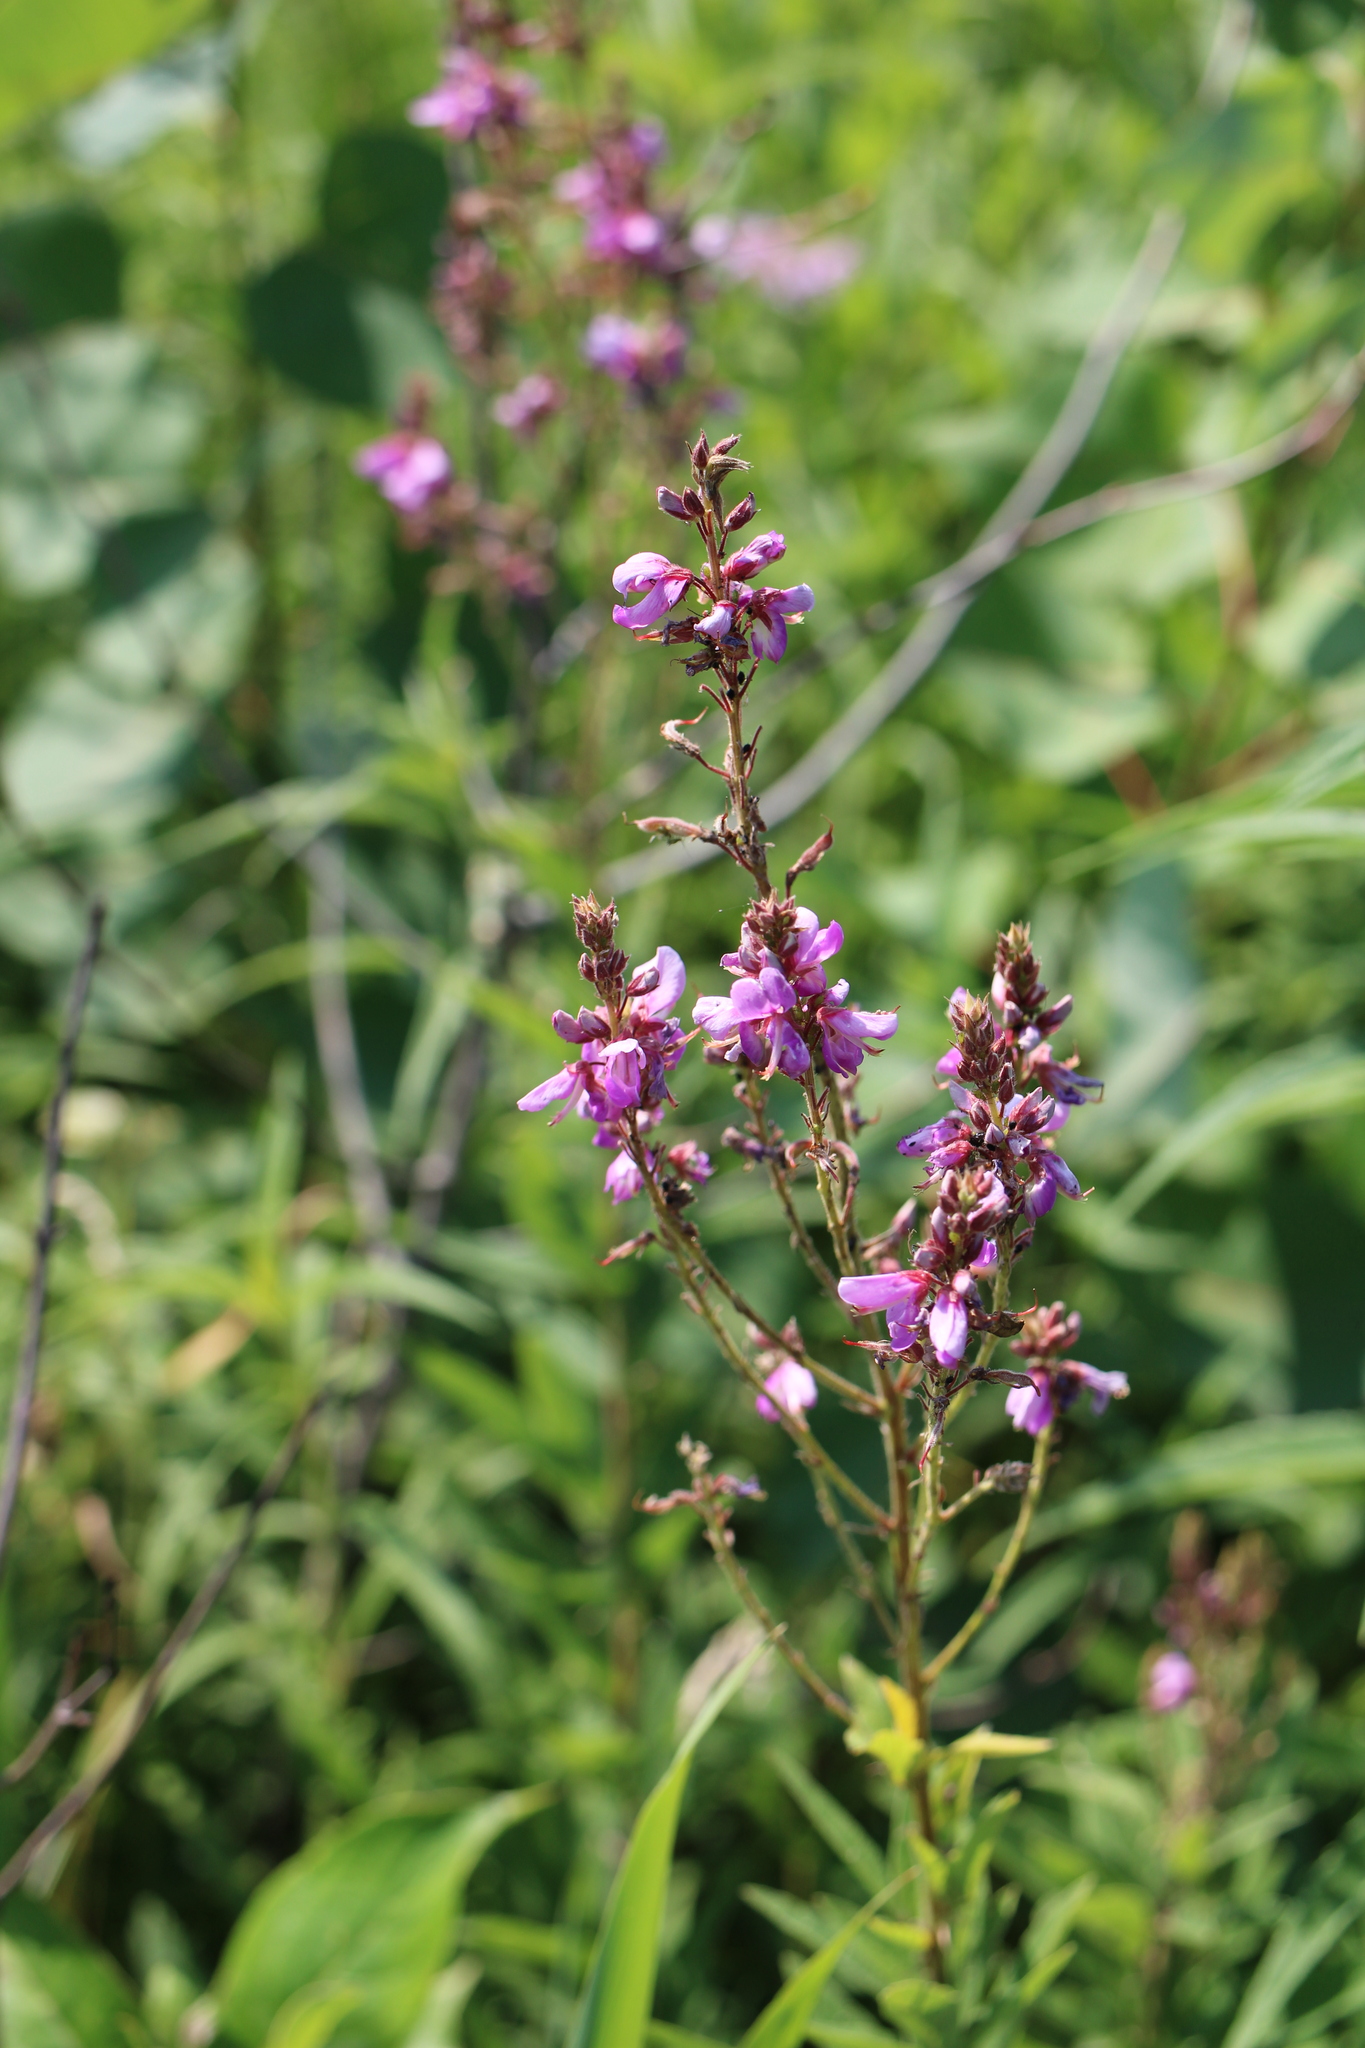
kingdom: Plantae
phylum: Tracheophyta
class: Magnoliopsida
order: Fabales
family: Fabaceae
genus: Desmodium
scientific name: Desmodium canadense
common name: Canada tick-trefoil
